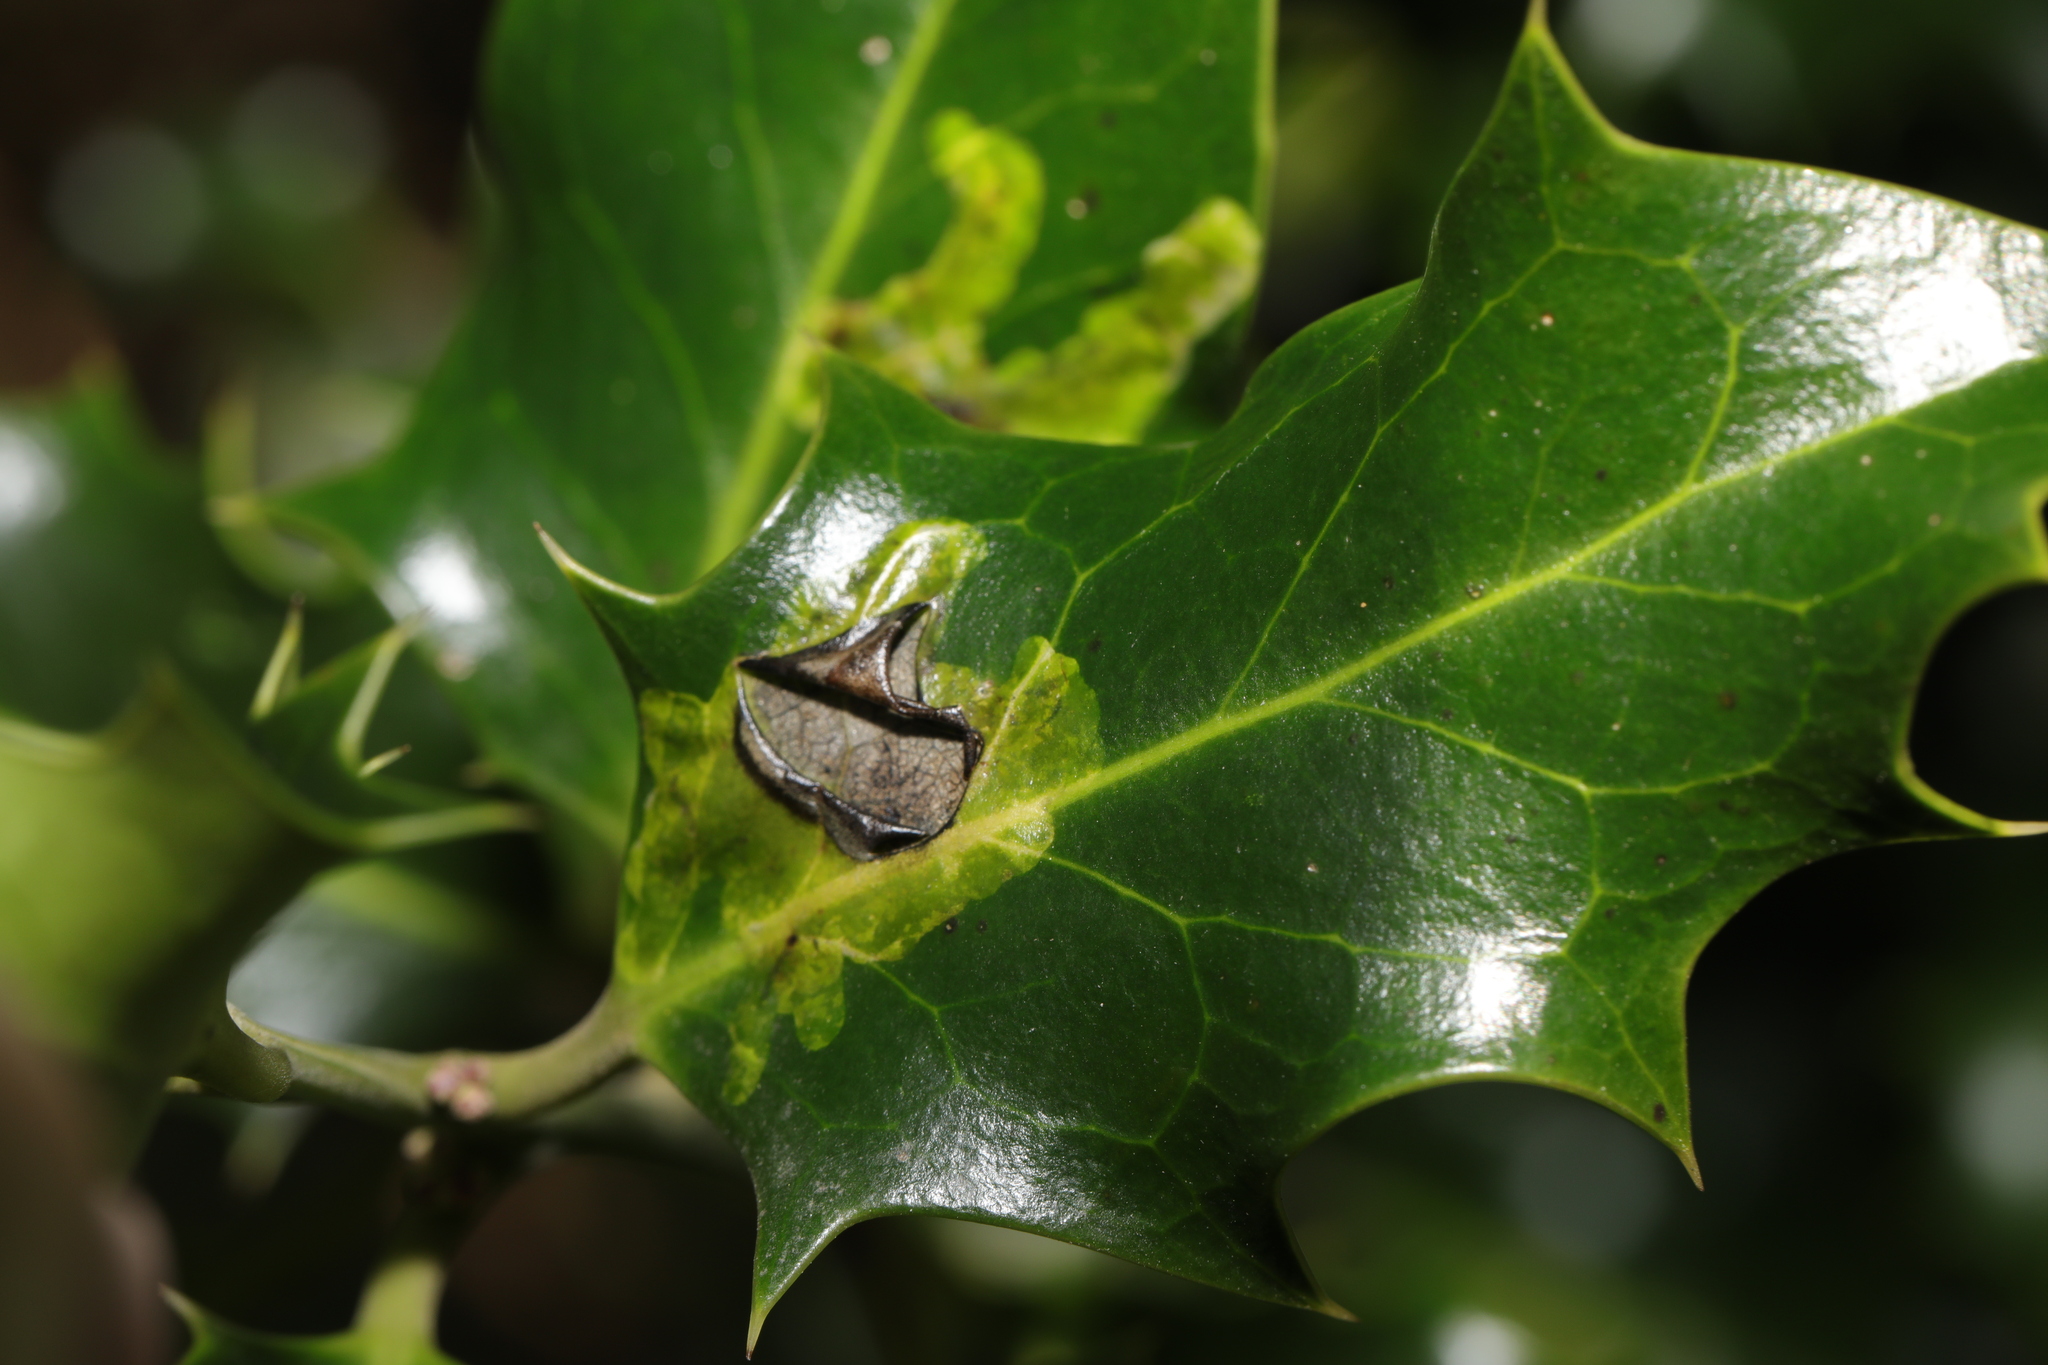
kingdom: Animalia
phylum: Arthropoda
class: Insecta
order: Diptera
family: Agromyzidae
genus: Phytomyza
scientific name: Phytomyza ilicis
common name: Holly leafminer
